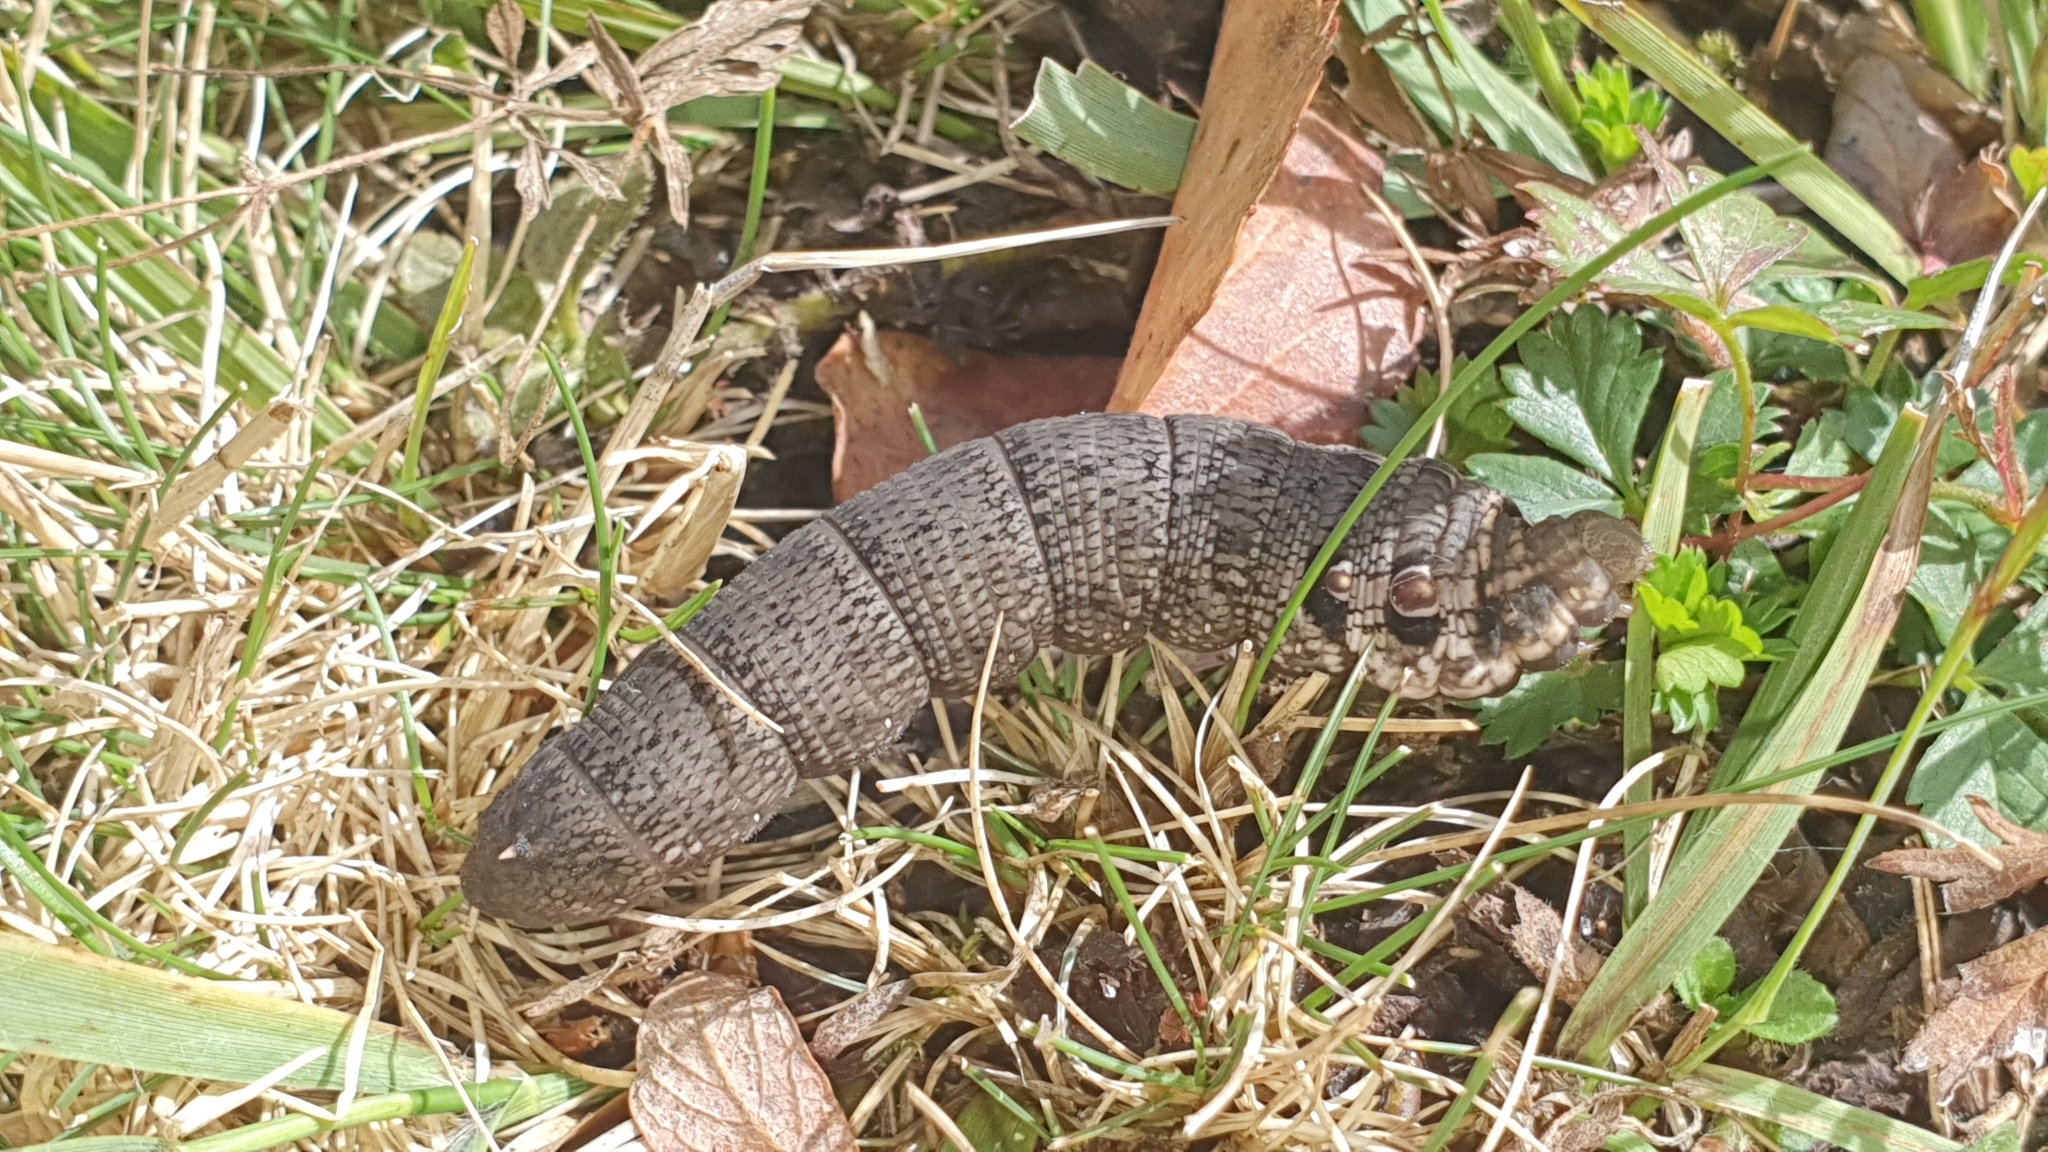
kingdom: Animalia
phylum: Arthropoda
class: Insecta
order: Lepidoptera
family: Sphingidae
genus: Deilephila
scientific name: Deilephila porcellus
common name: Small elephant hawk-moth
